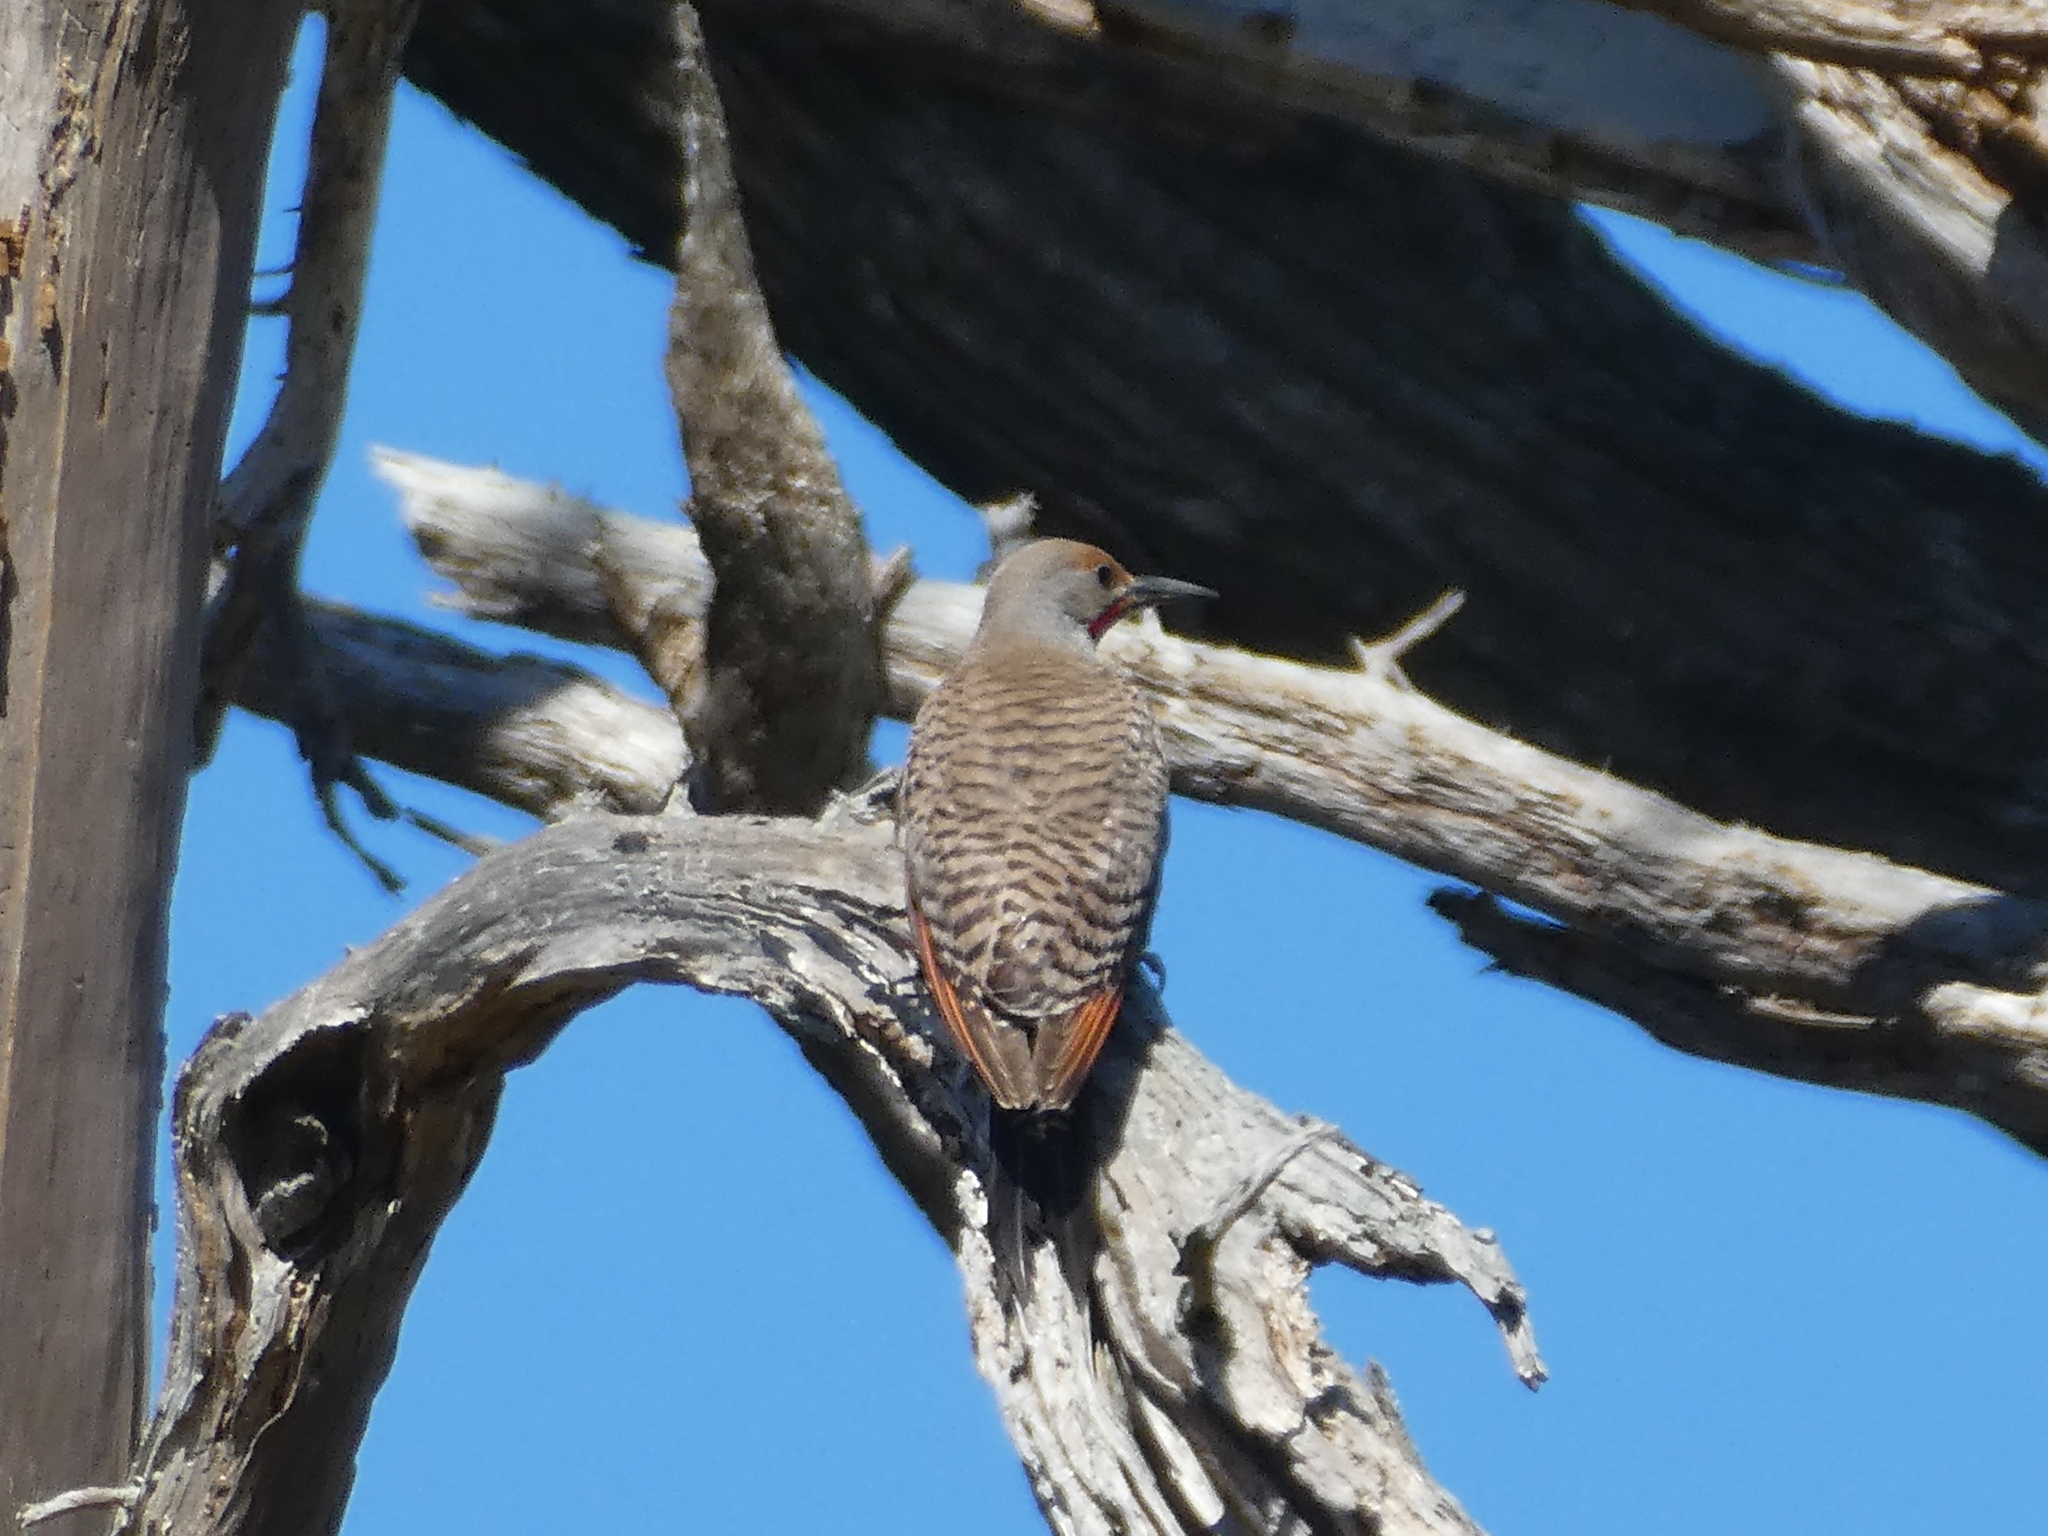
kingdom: Animalia
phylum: Chordata
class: Aves
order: Piciformes
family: Picidae
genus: Colaptes
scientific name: Colaptes auratus
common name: Northern flicker
